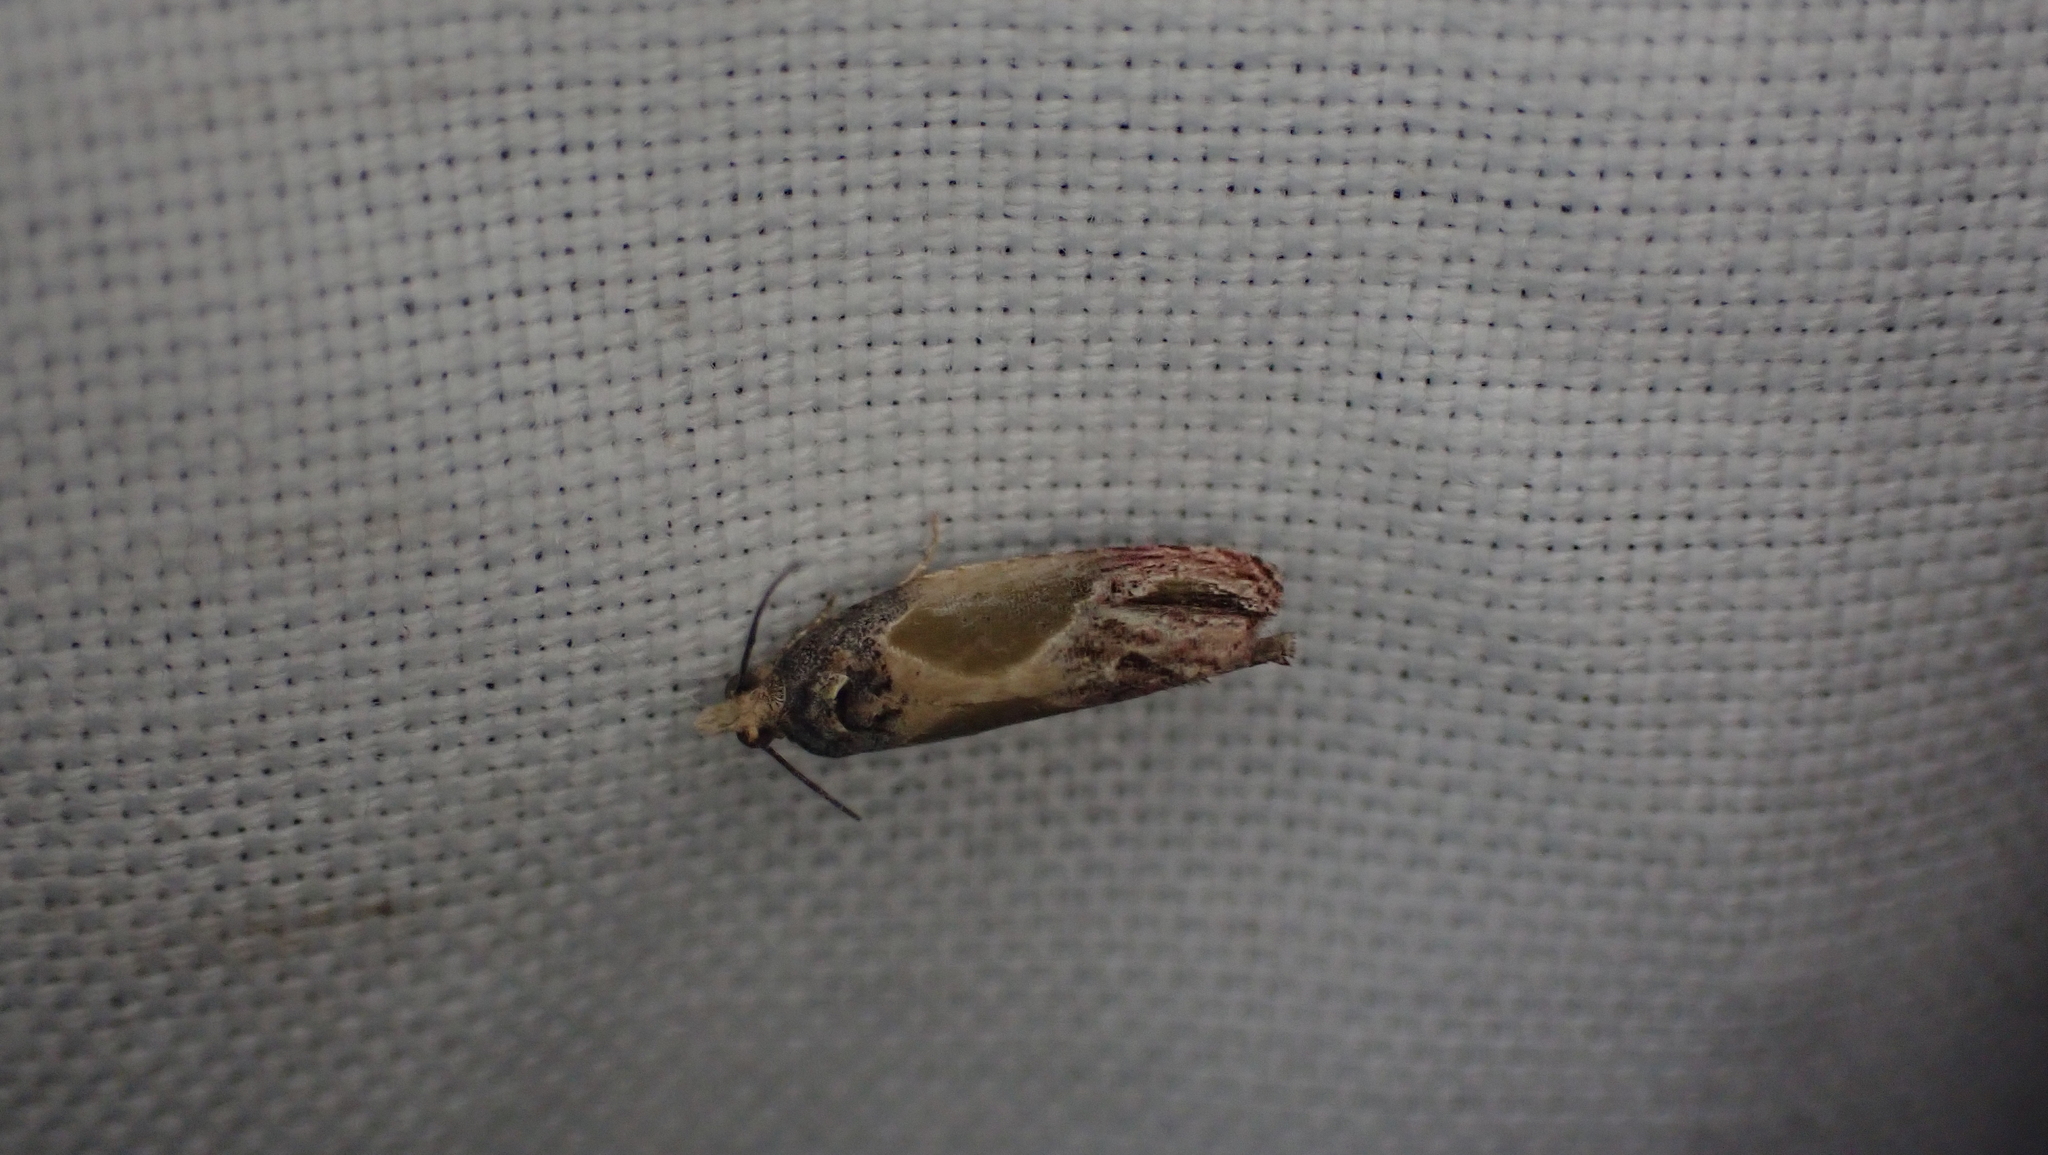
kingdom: Animalia
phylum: Arthropoda
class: Insecta
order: Lepidoptera
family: Tortricidae
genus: Eumarozia
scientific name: Eumarozia malachitana
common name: Sculptured moth
